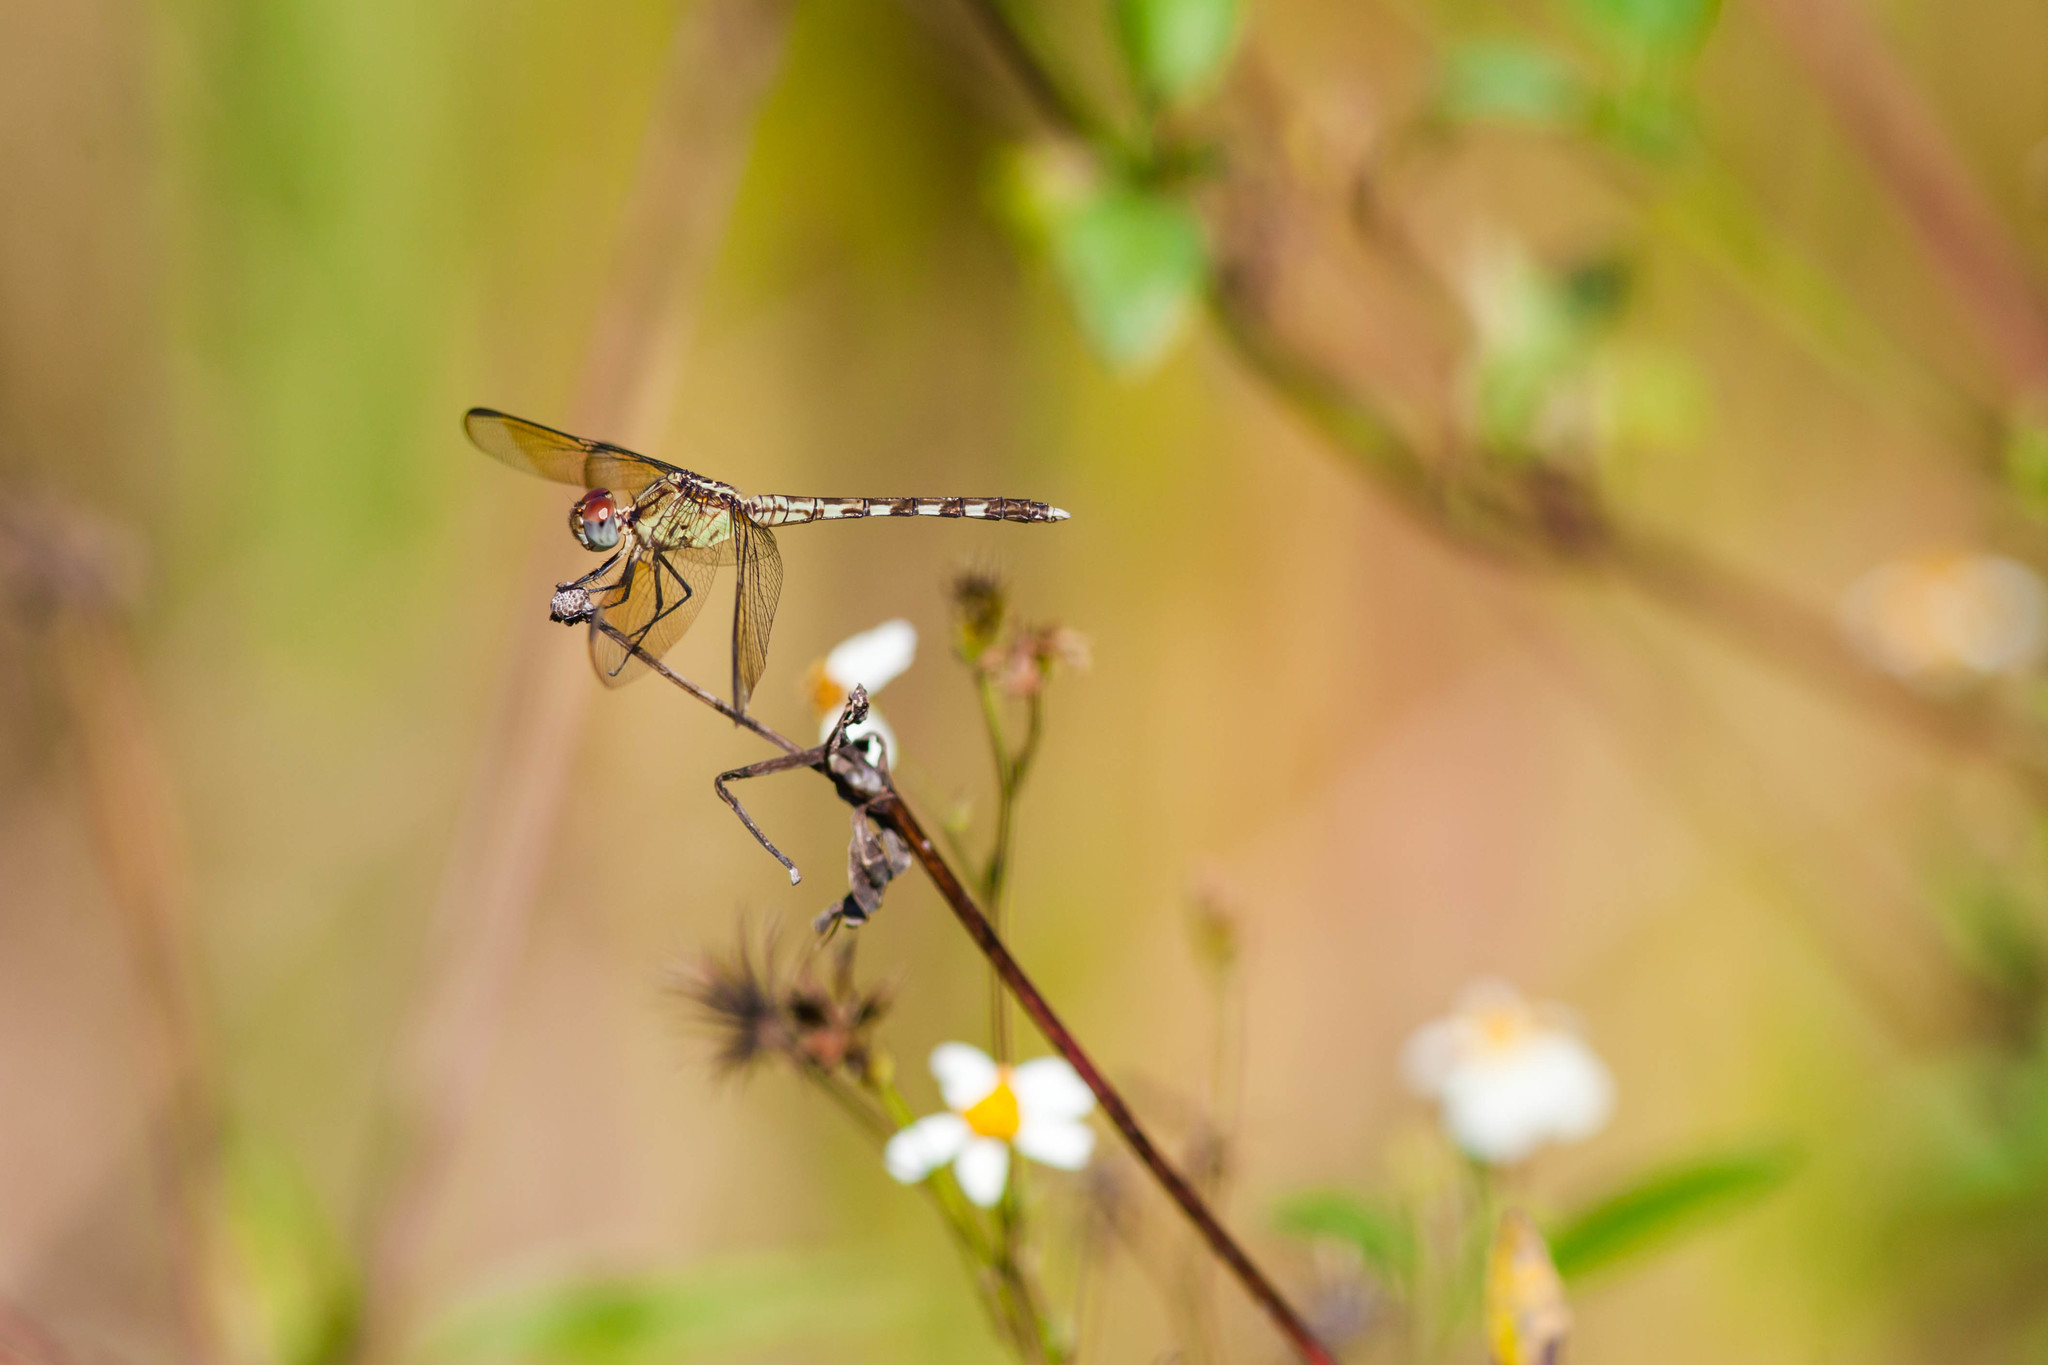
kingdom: Animalia
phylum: Arthropoda
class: Insecta
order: Odonata
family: Libellulidae
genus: Erythrodiplax
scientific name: Erythrodiplax umbrata
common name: Band-winged dragonlet
